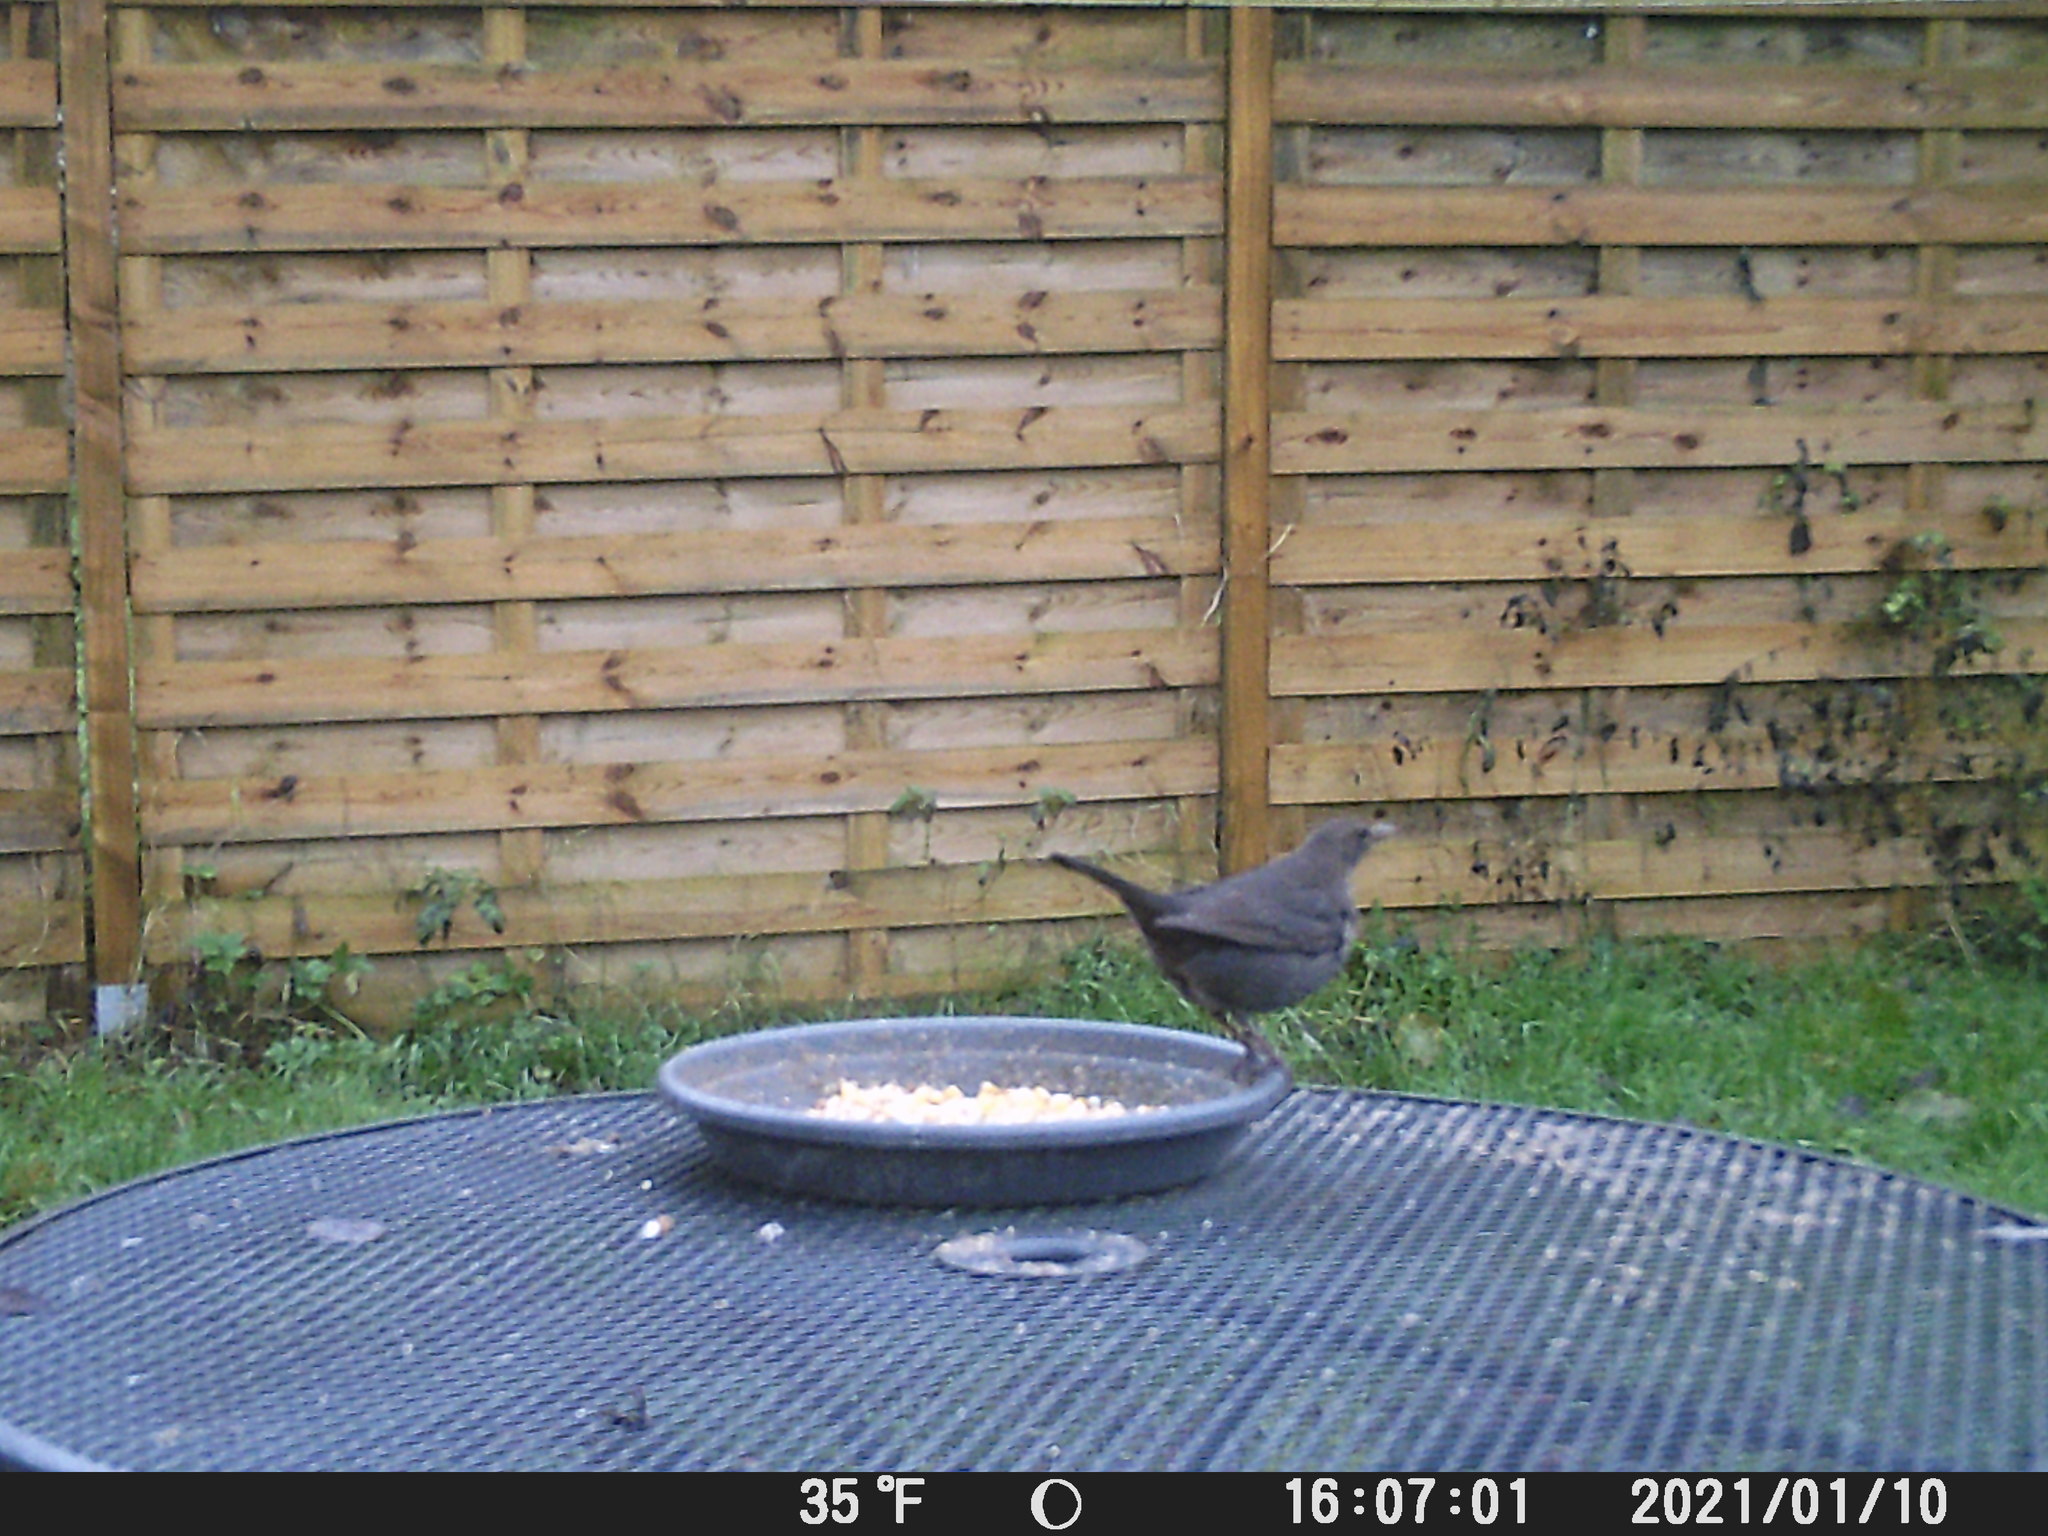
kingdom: Animalia
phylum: Chordata
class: Aves
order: Passeriformes
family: Turdidae
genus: Turdus
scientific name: Turdus merula
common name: Common blackbird
